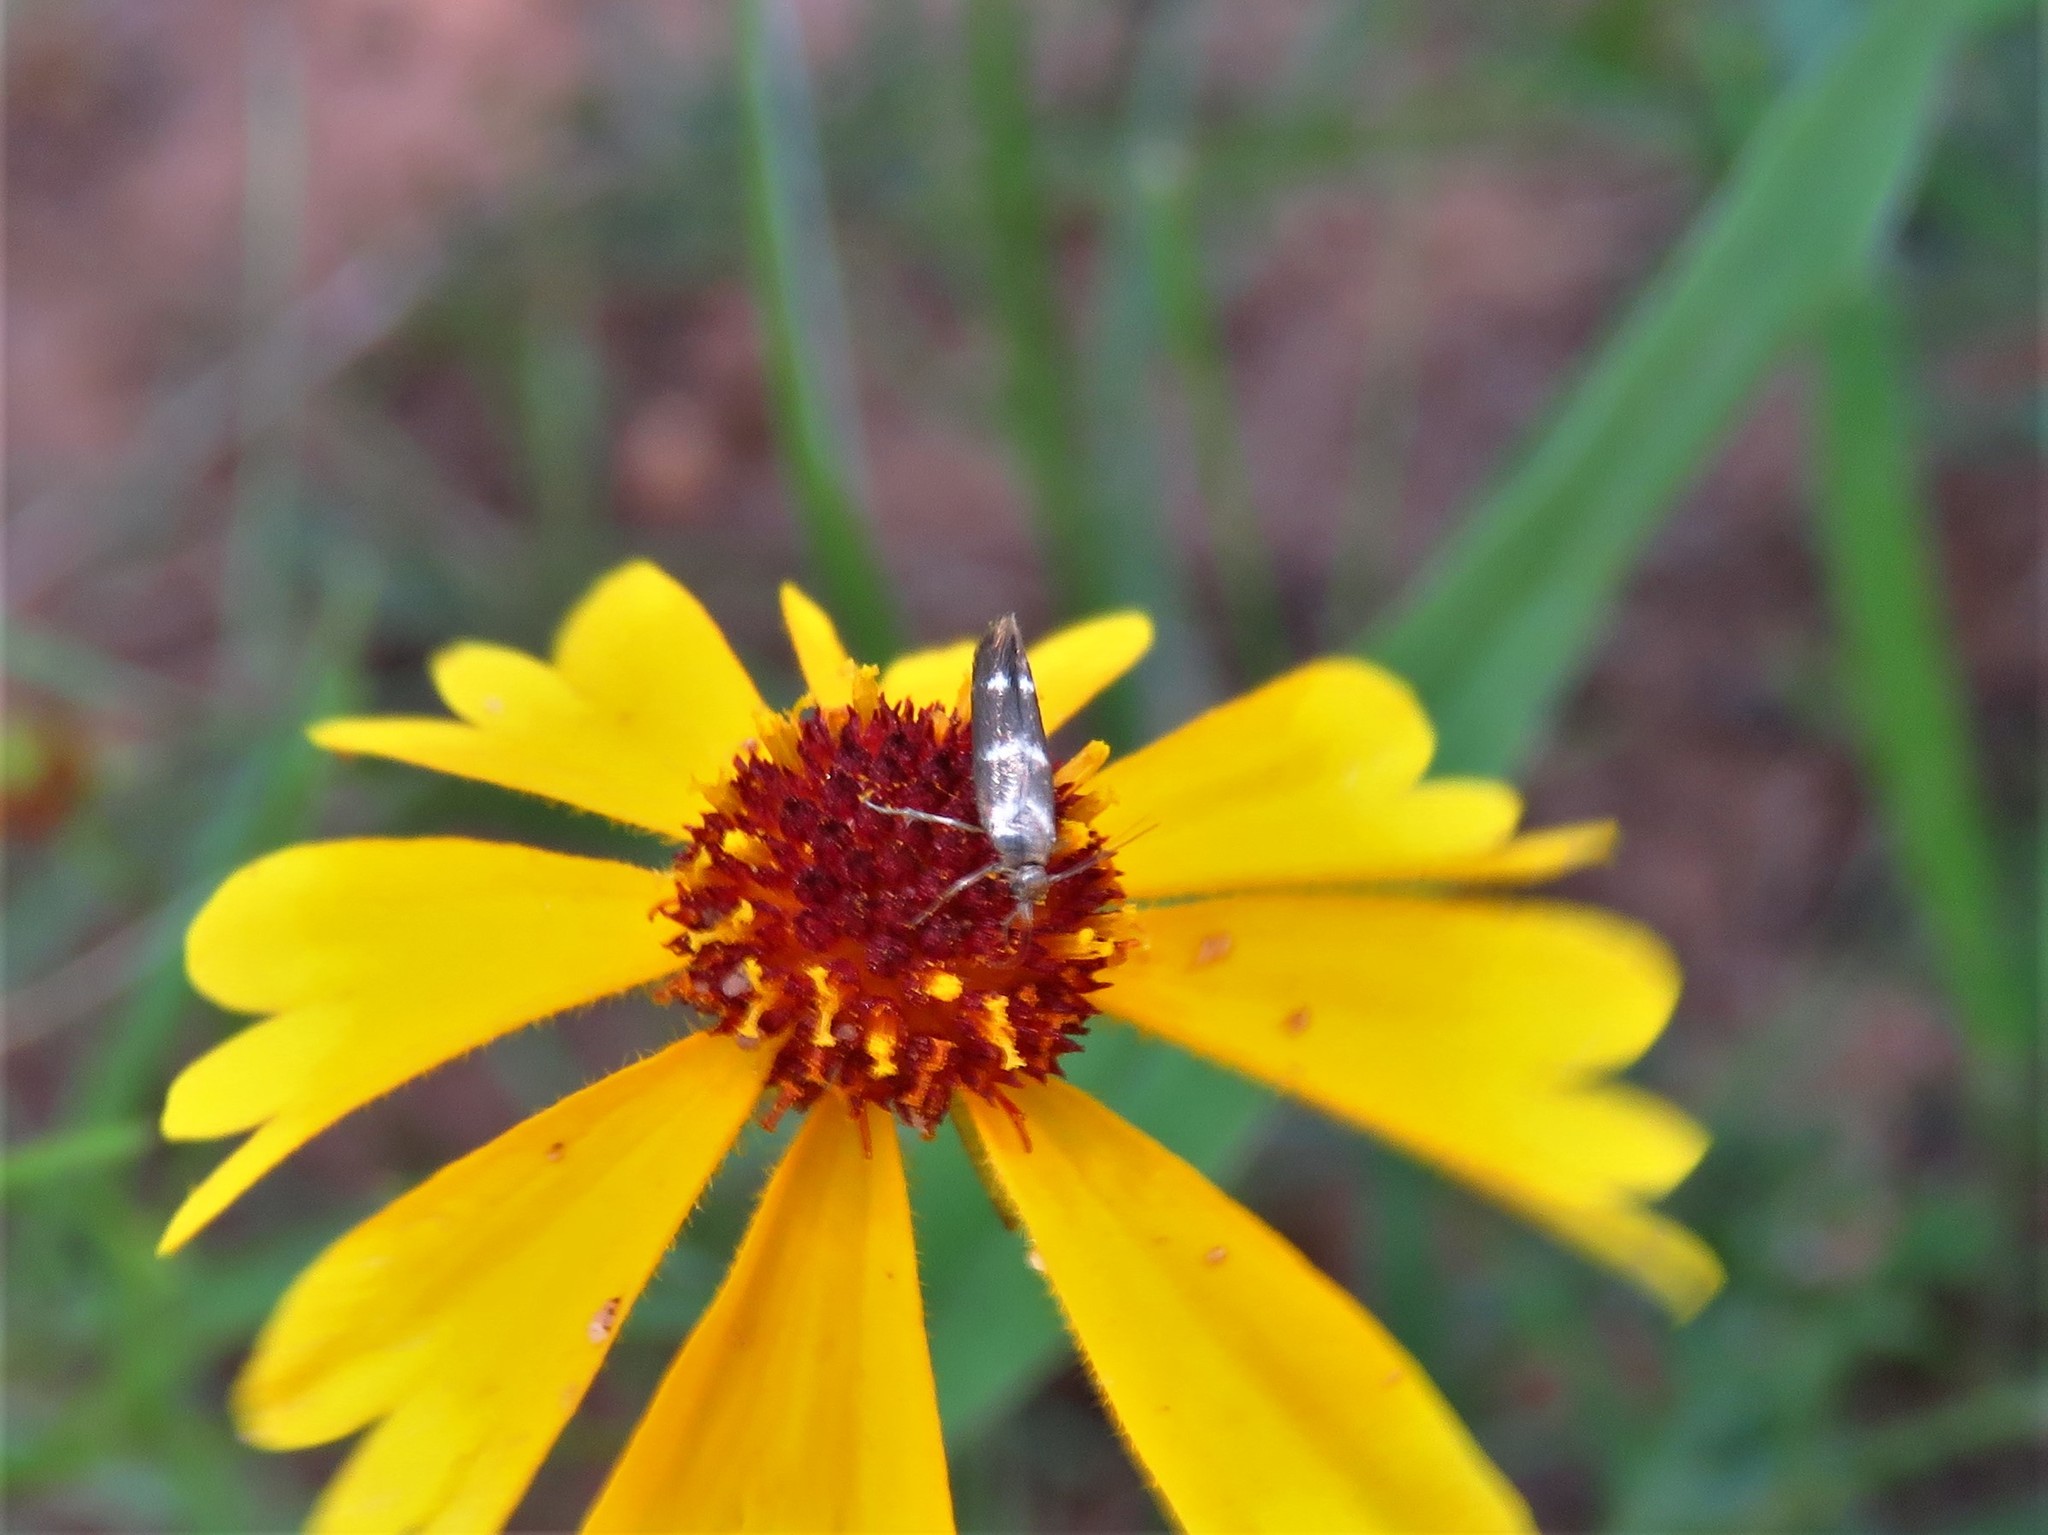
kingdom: Animalia
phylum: Arthropoda
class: Insecta
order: Lepidoptera
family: Scythrididae
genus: Scythris
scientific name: Scythris trivinctella
